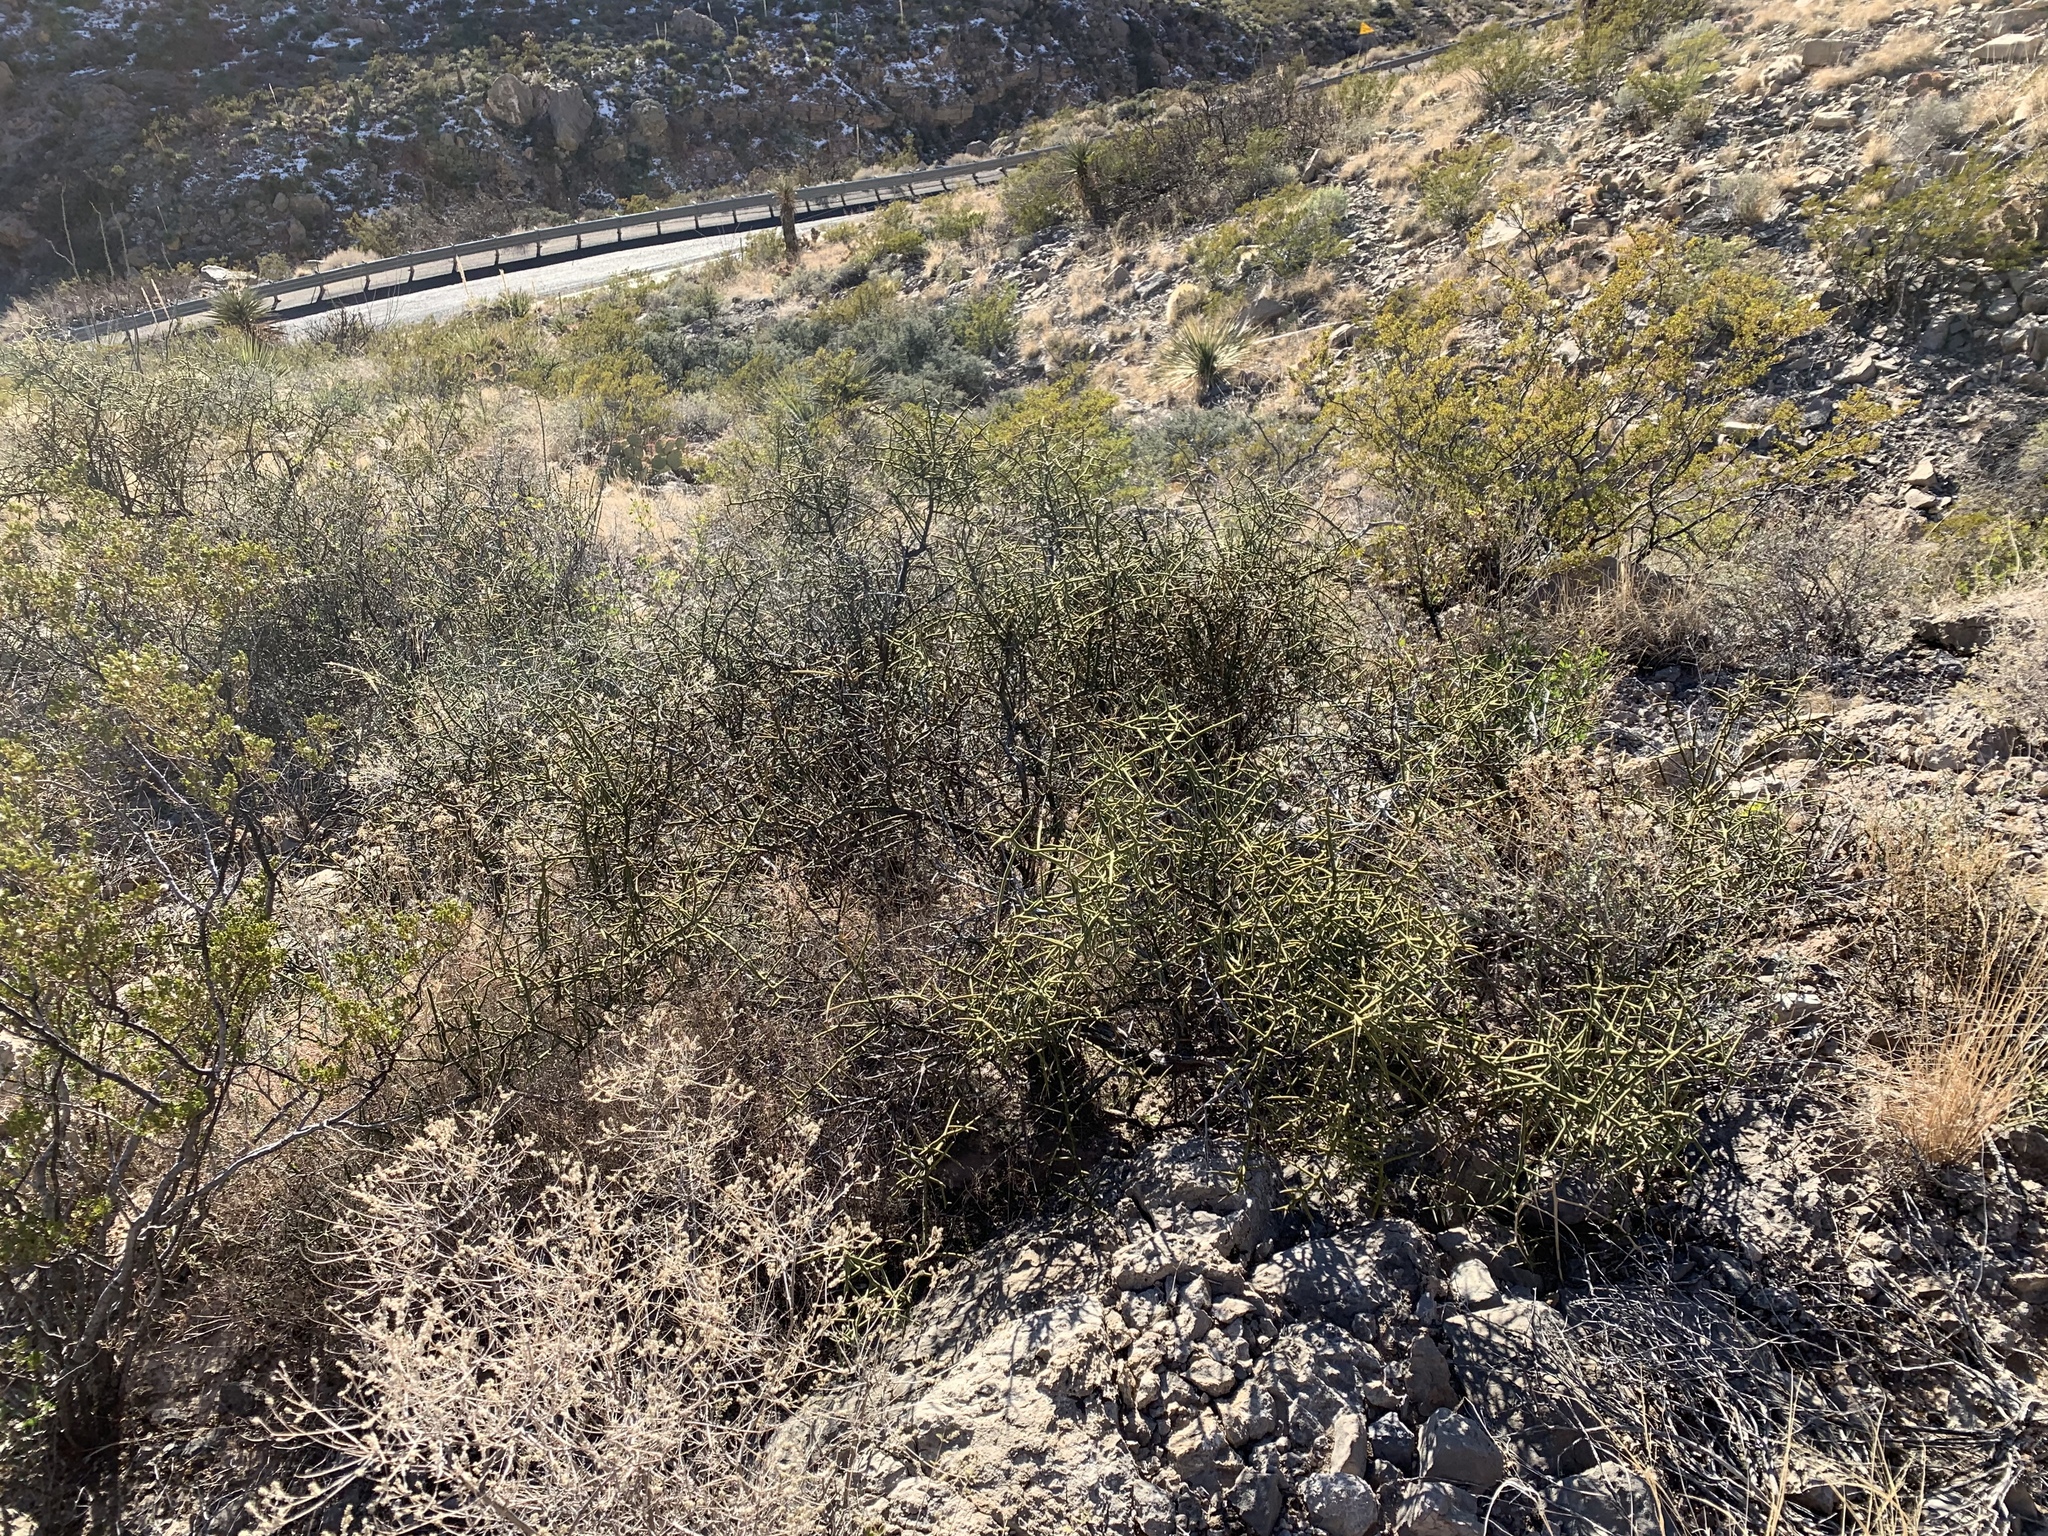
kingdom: Plantae
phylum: Tracheophyta
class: Magnoliopsida
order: Brassicales
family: Koeberliniaceae
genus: Koeberlinia
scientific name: Koeberlinia spinosa
